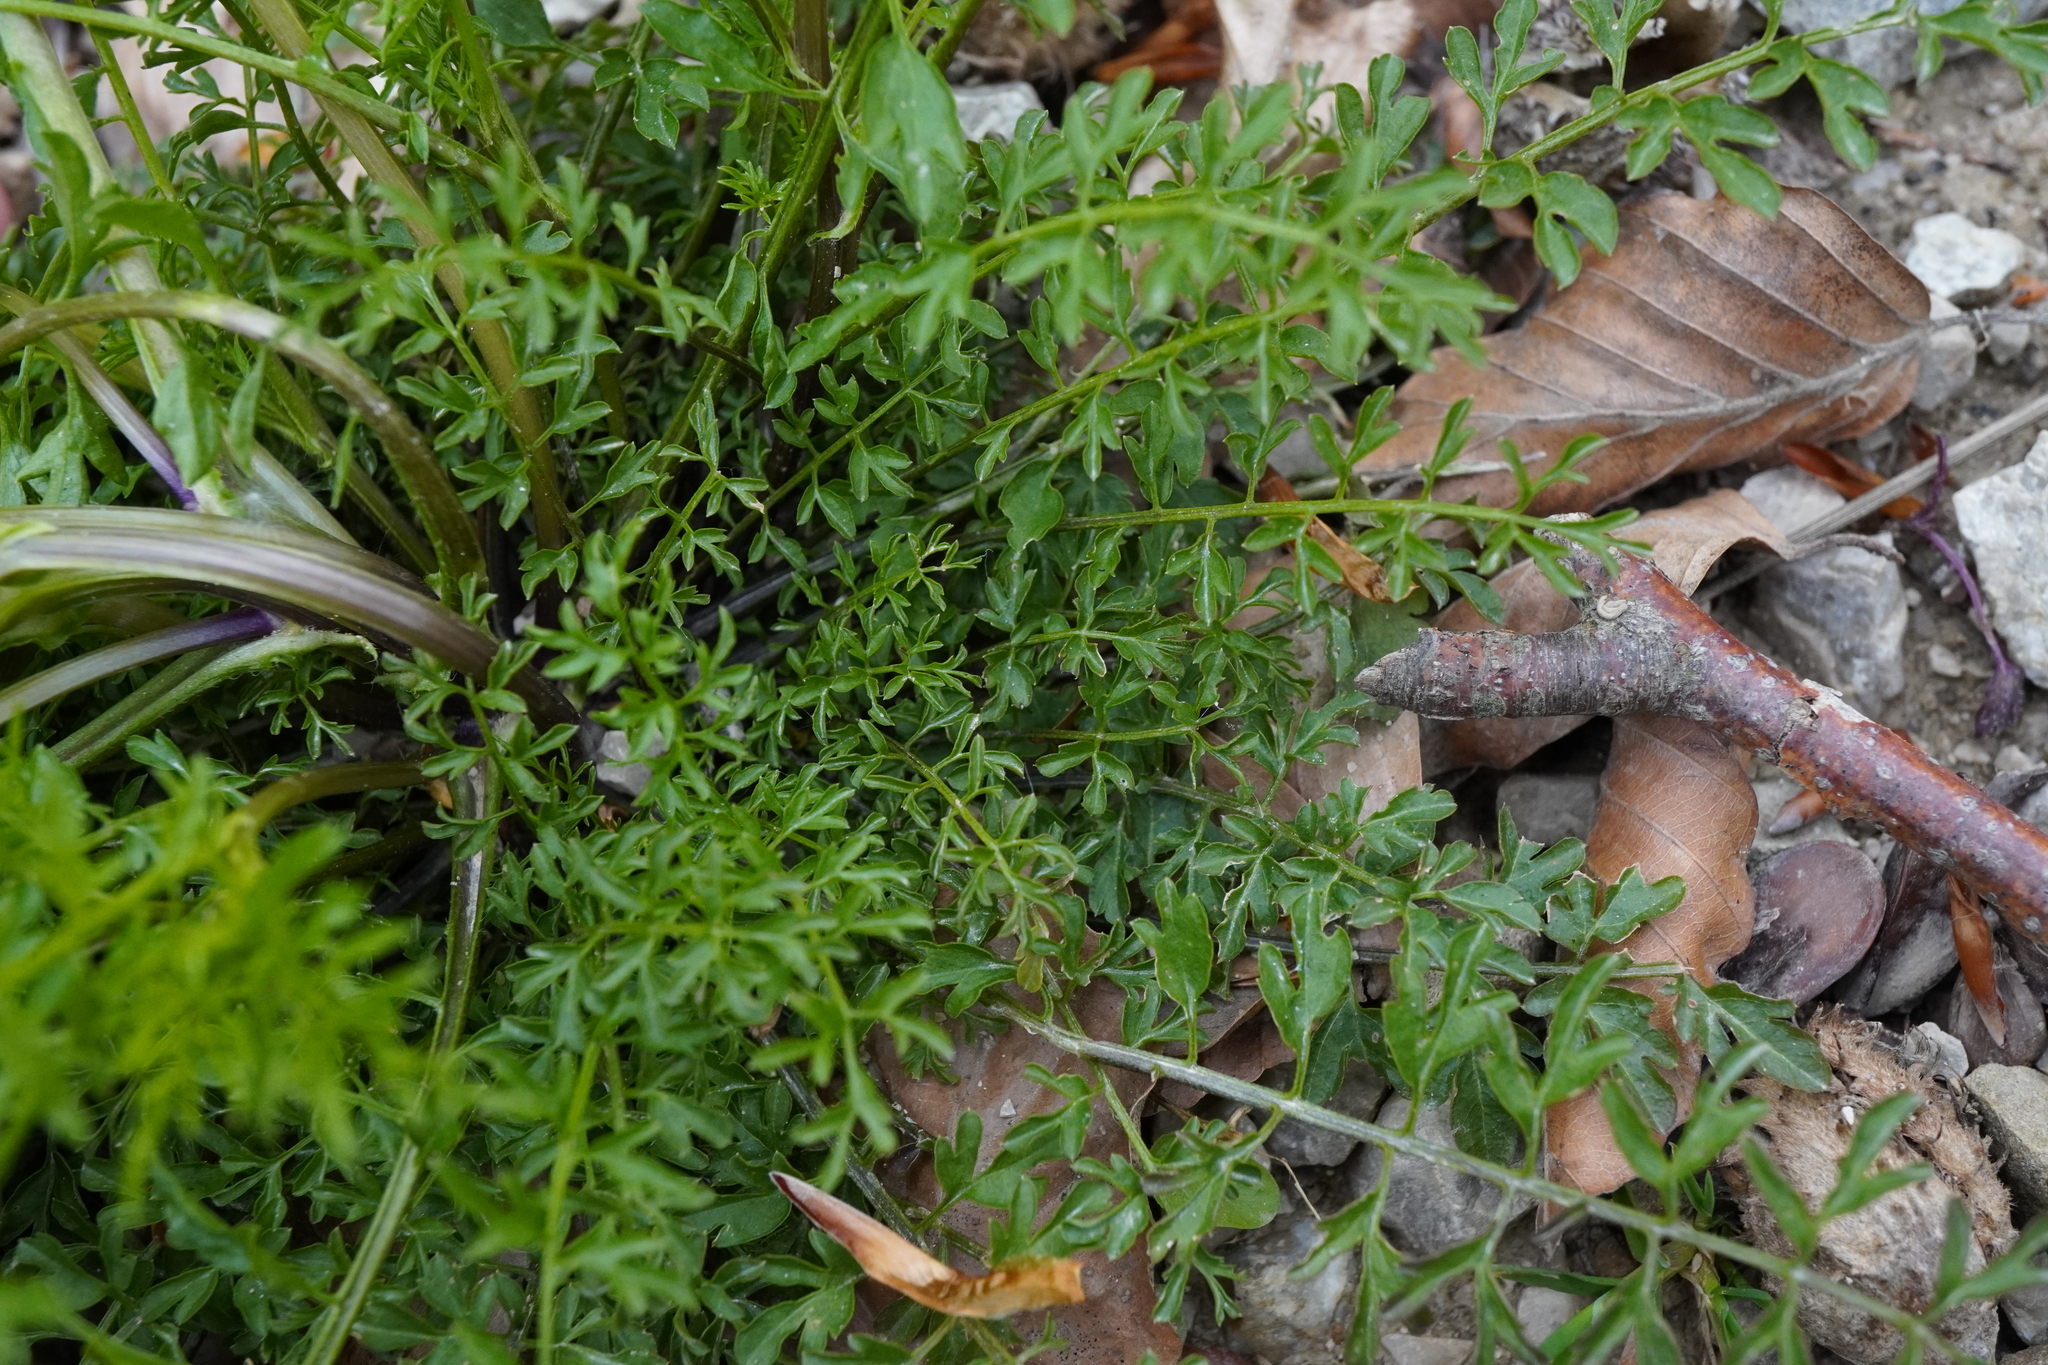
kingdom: Plantae
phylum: Tracheophyta
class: Magnoliopsida
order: Brassicales
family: Brassicaceae
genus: Cardamine
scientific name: Cardamine impatiens
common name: Narrow-leaved bitter-cress
